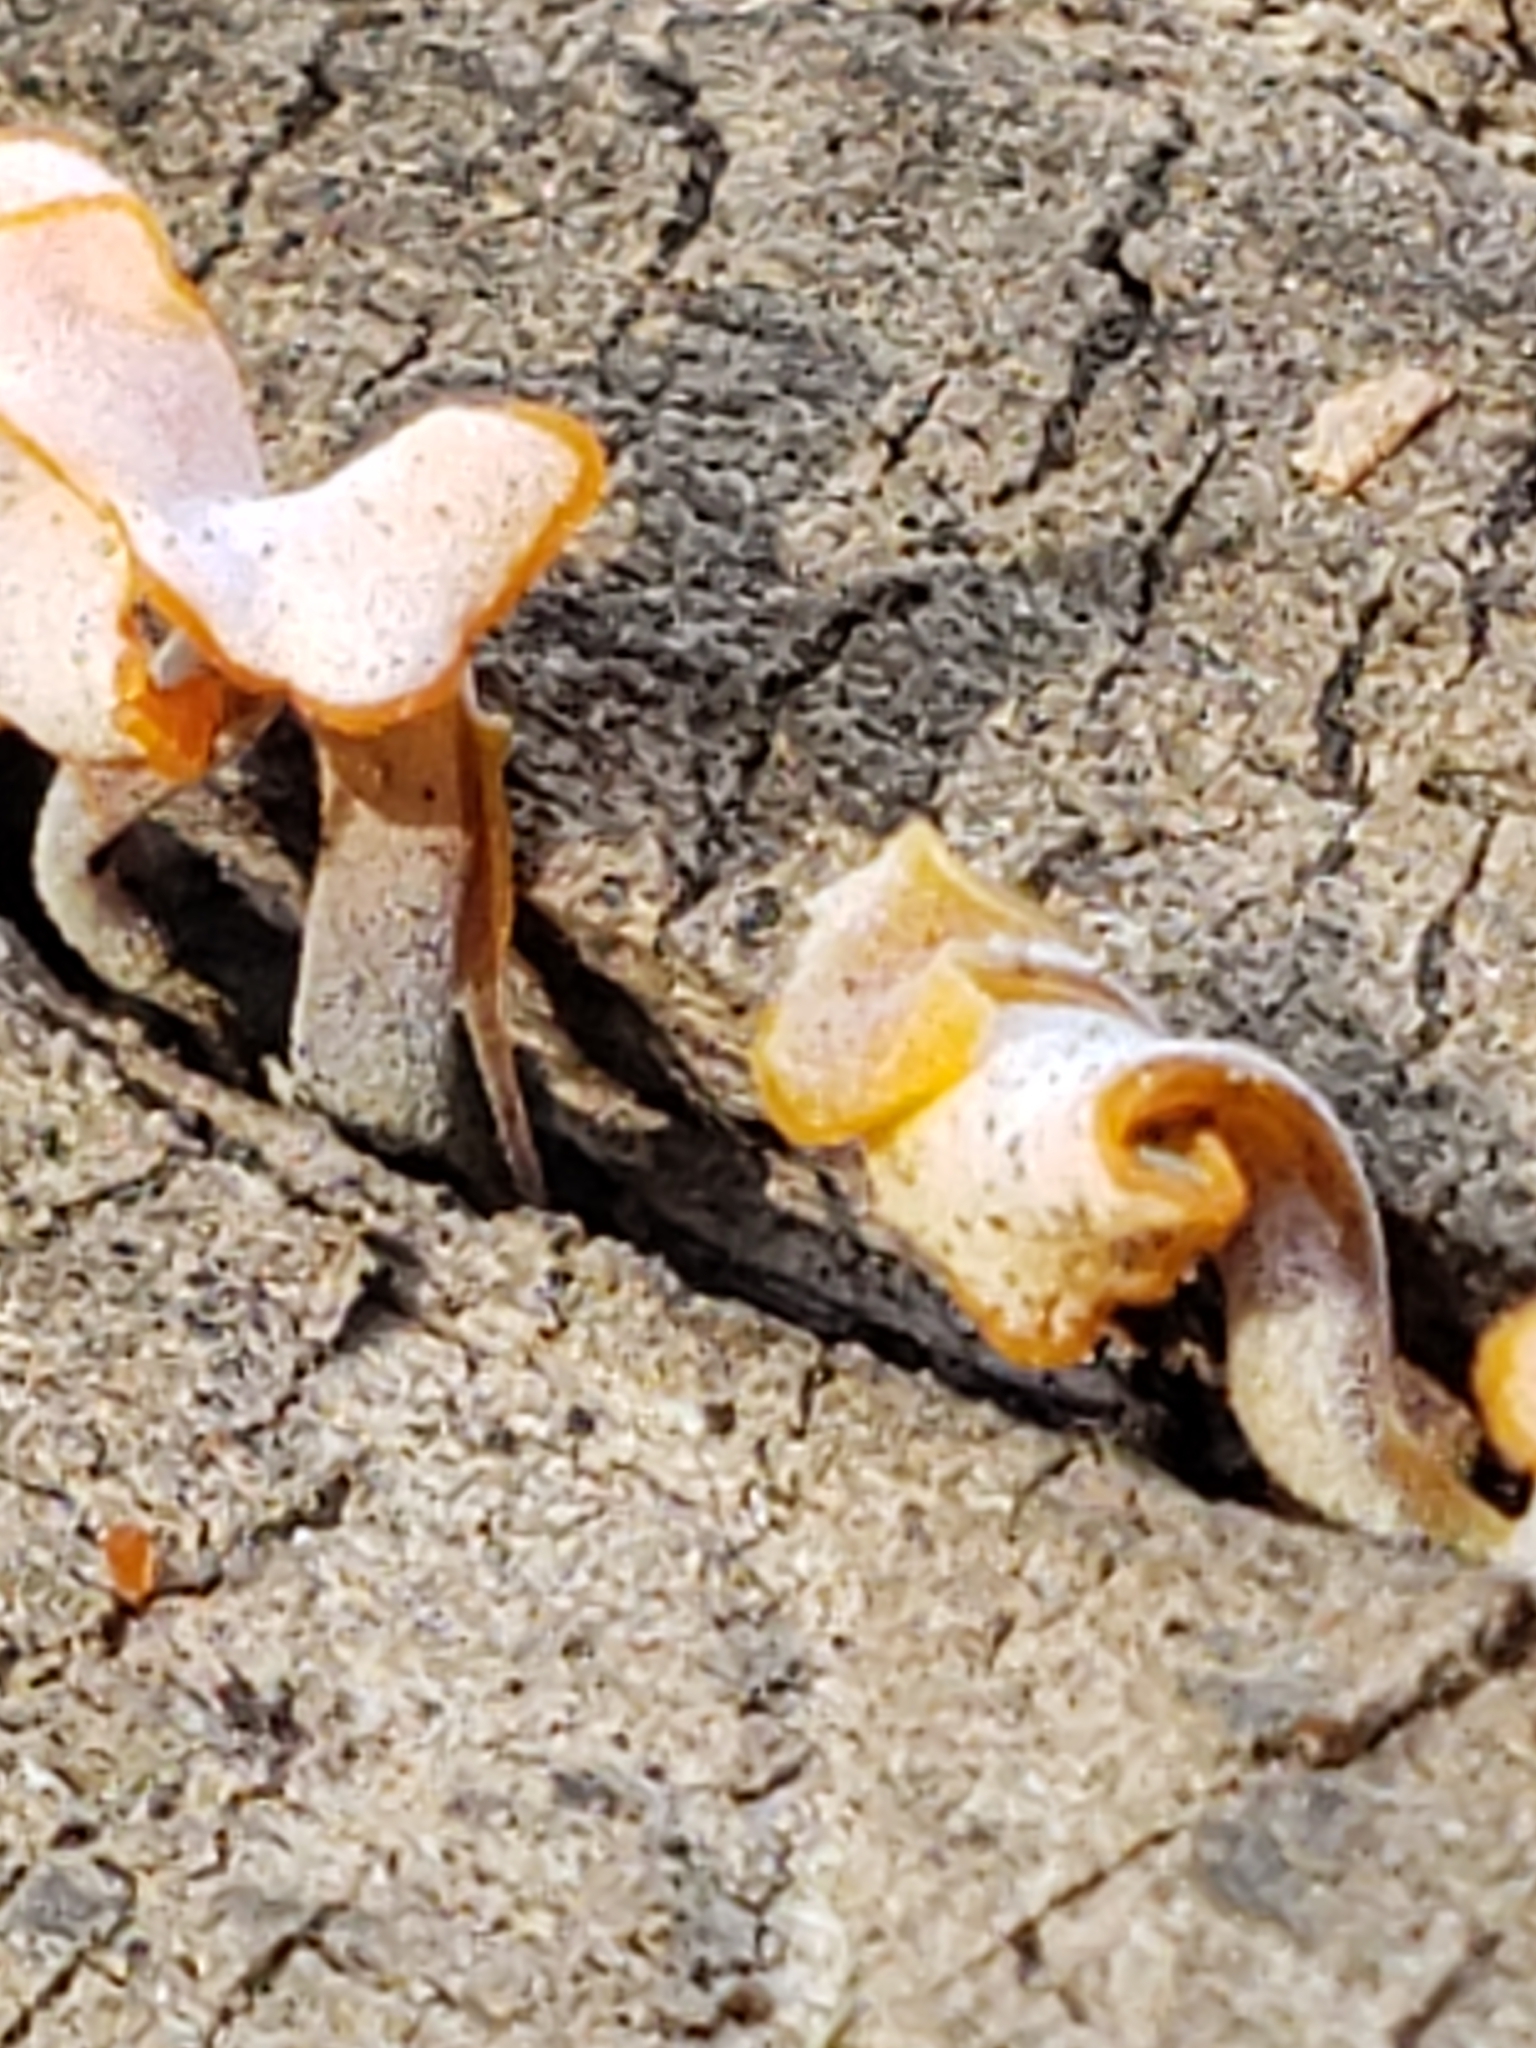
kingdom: Fungi
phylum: Basidiomycota
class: Dacrymycetes
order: Dacrymycetales
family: Dacrymycetaceae
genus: Dacrymyces
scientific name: Dacrymyces spathularius
